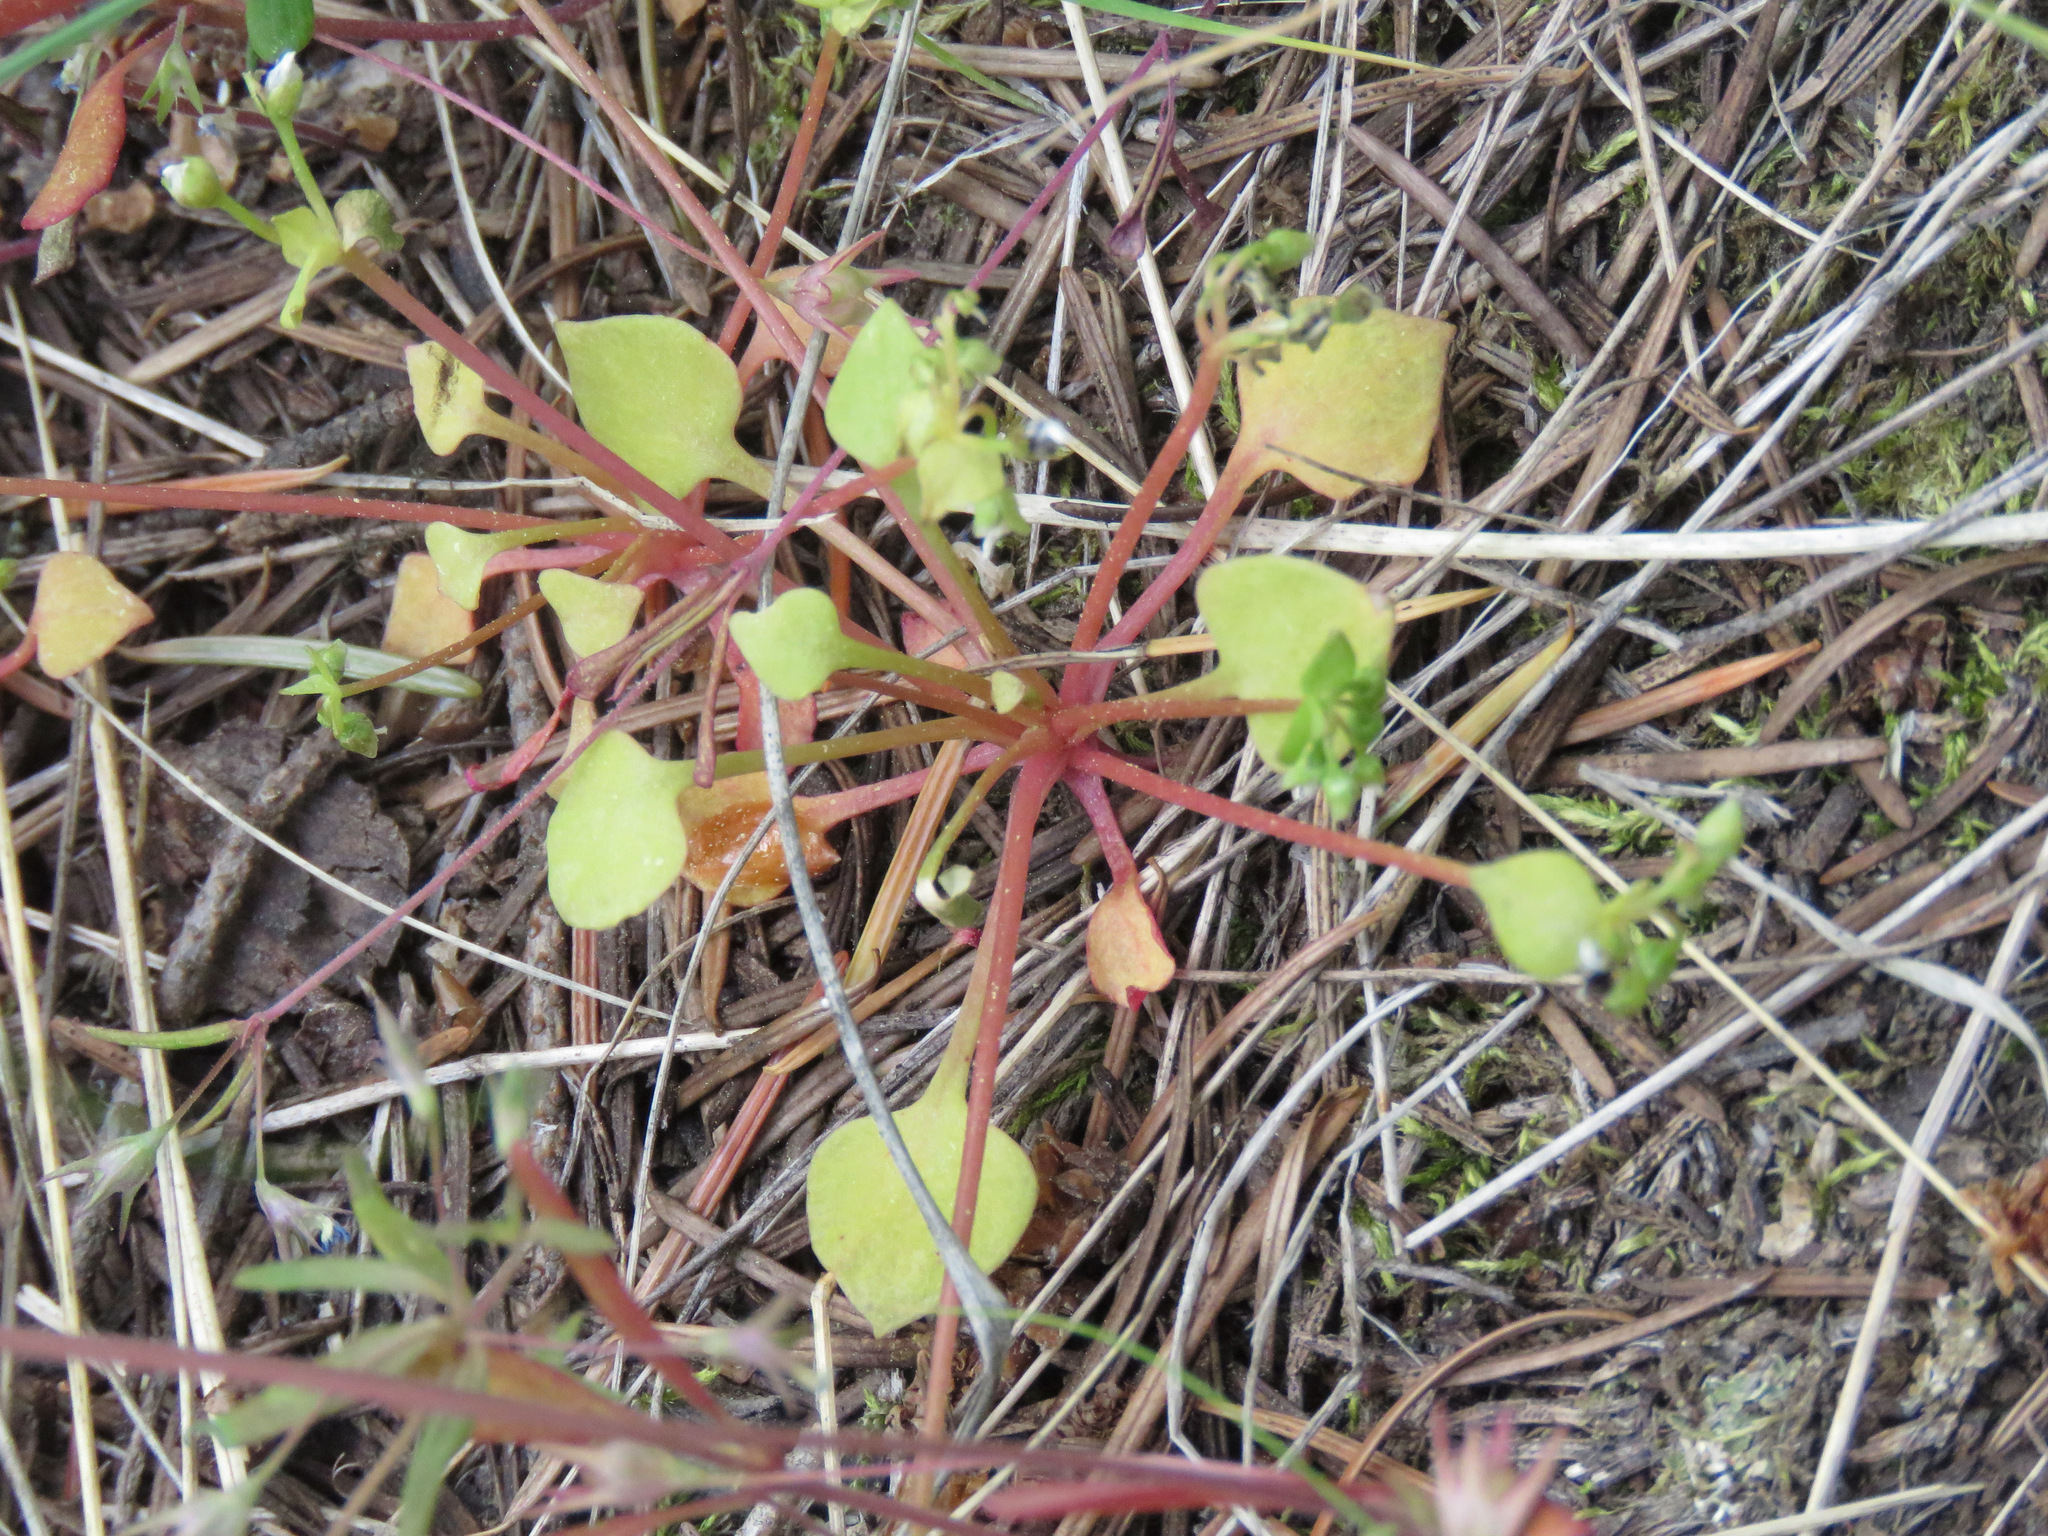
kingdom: Plantae
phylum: Tracheophyta
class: Magnoliopsida
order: Caryophyllales
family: Montiaceae
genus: Claytonia
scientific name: Claytonia rubra
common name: Erubescent miner's-lettuce
